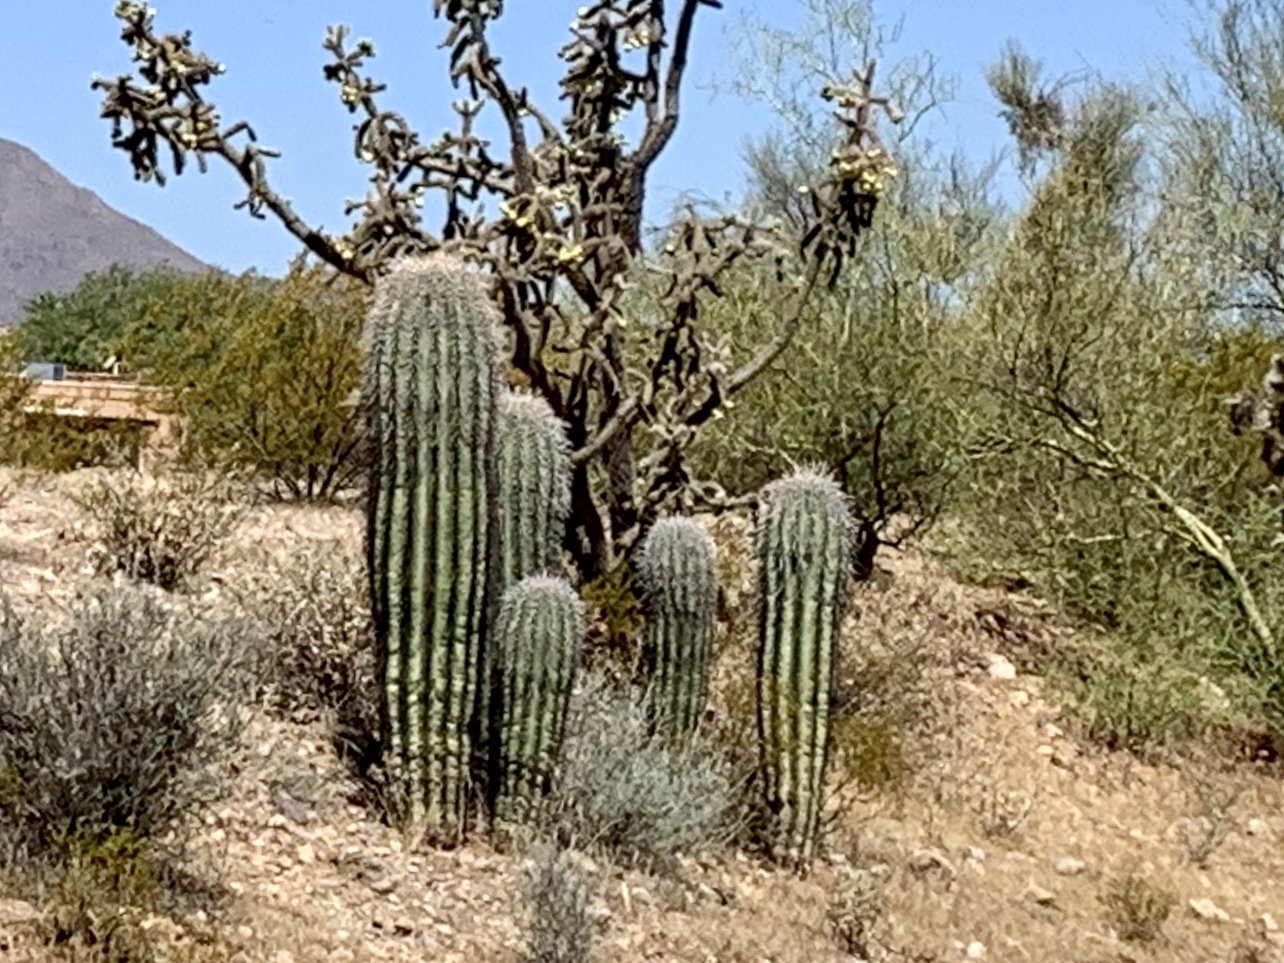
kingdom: Plantae
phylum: Tracheophyta
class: Magnoliopsida
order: Caryophyllales
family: Cactaceae
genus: Carnegiea
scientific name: Carnegiea gigantea
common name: Saguaro
